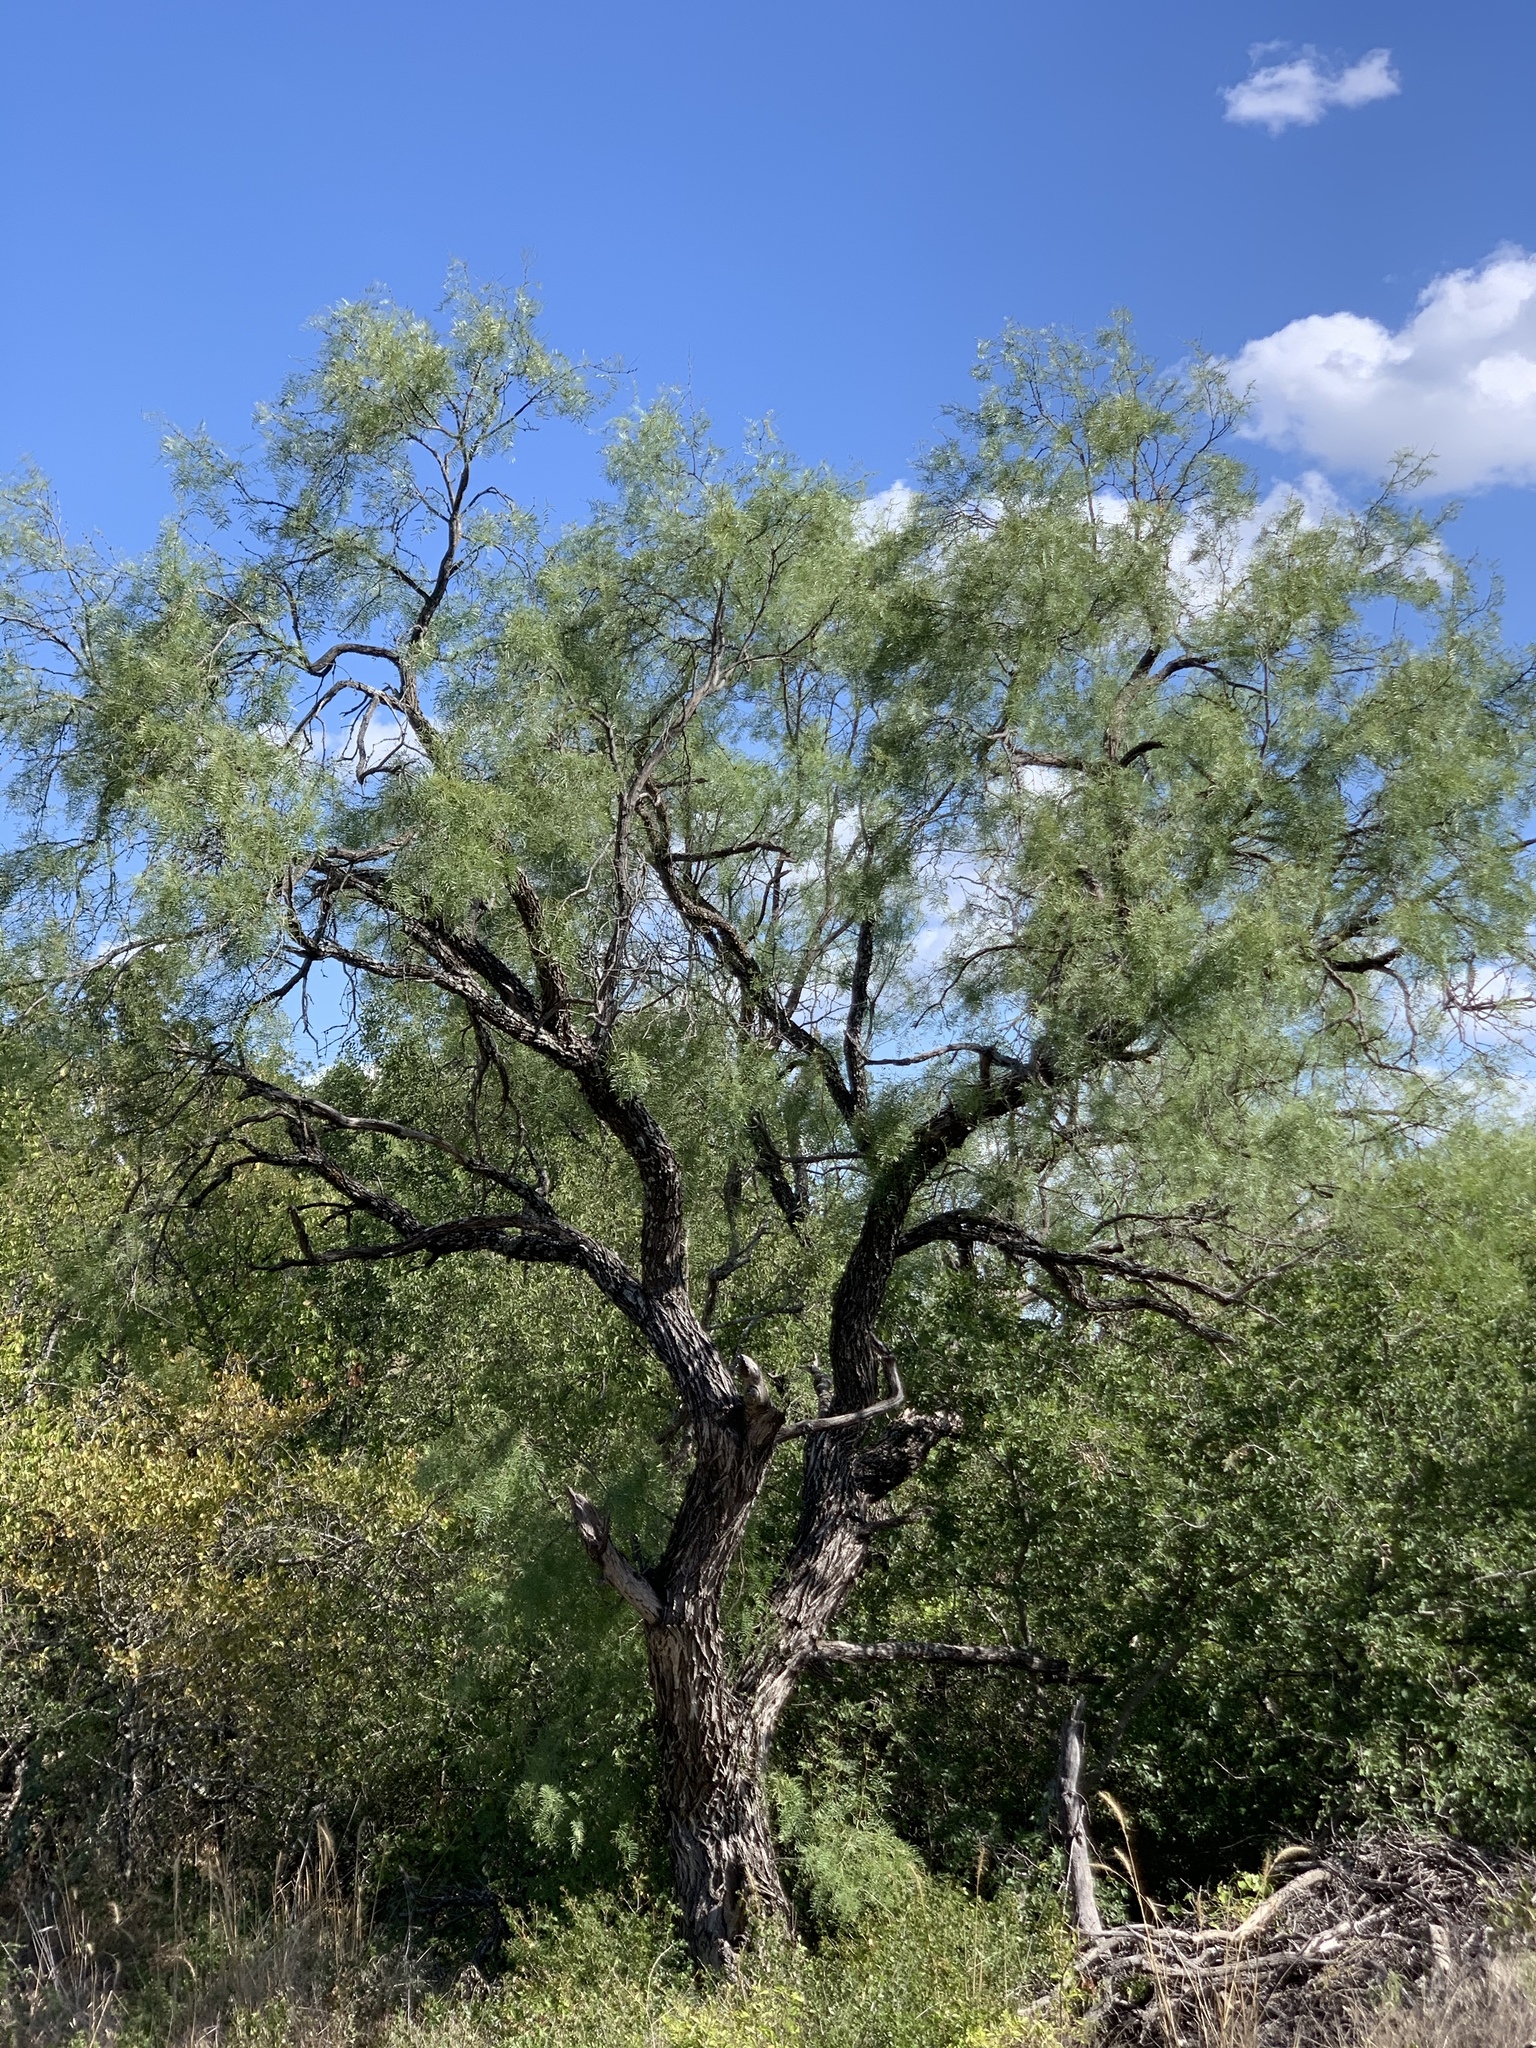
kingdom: Plantae
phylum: Tracheophyta
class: Magnoliopsida
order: Fabales
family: Fabaceae
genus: Prosopis
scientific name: Prosopis glandulosa
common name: Honey mesquite
